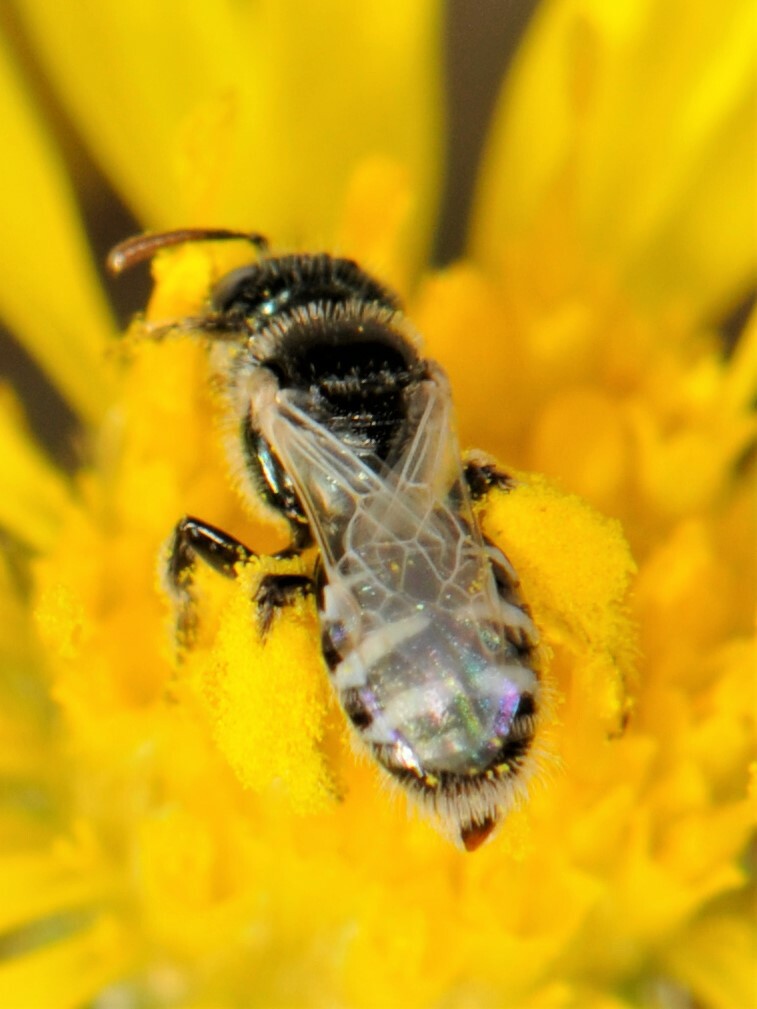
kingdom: Animalia
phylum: Arthropoda
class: Insecta
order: Hymenoptera
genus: Pentaperdita
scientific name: Pentaperdita
